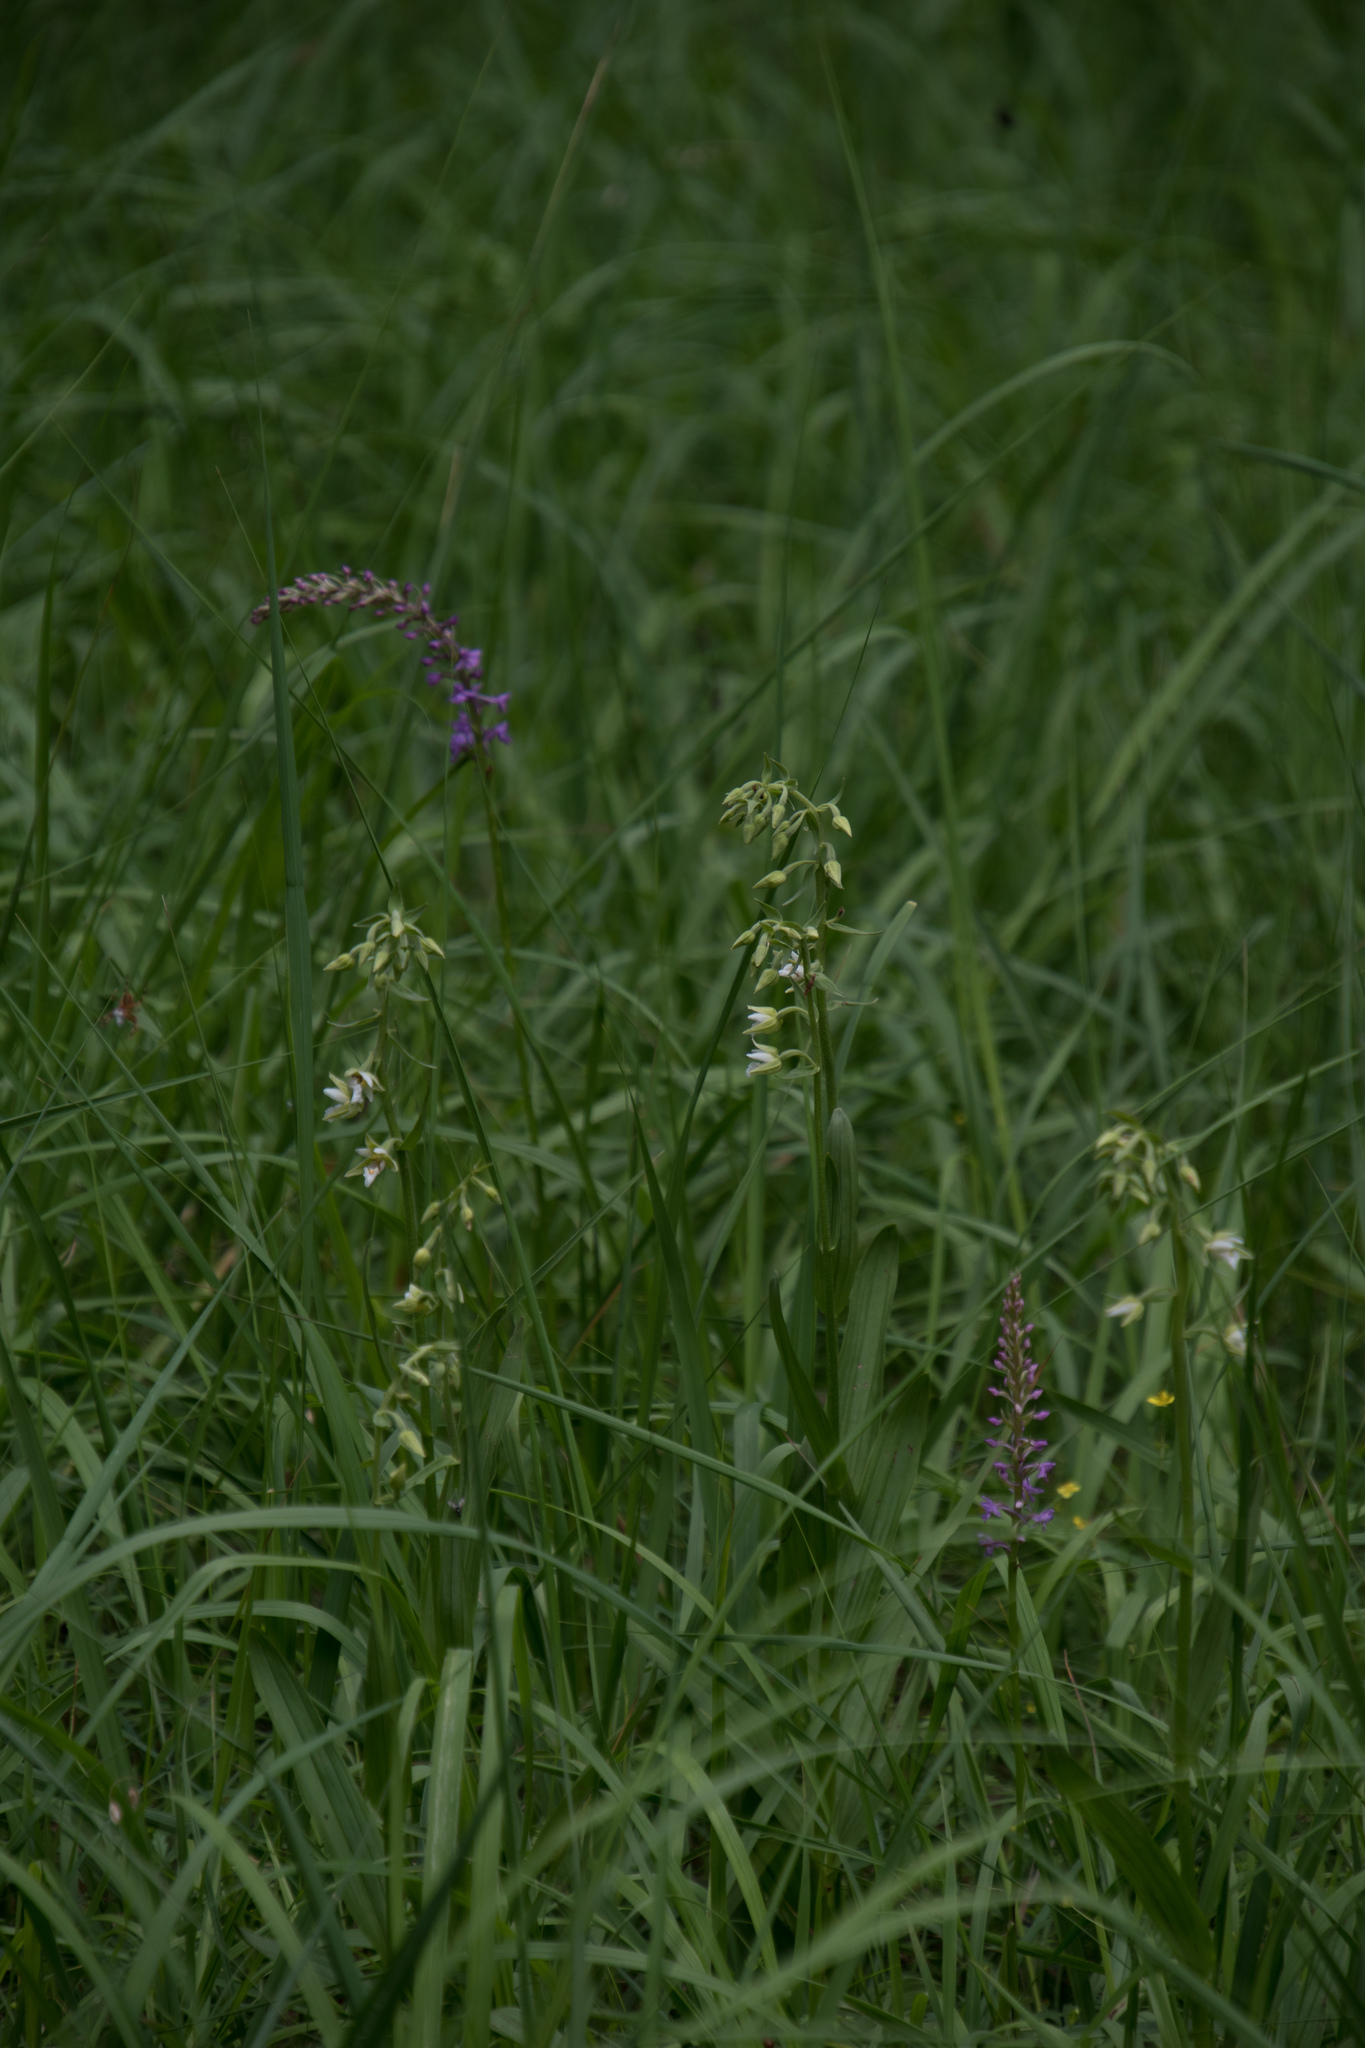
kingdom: Plantae
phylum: Tracheophyta
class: Liliopsida
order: Asparagales
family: Orchidaceae
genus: Epipactis
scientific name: Epipactis palustris
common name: Marsh helleborine
